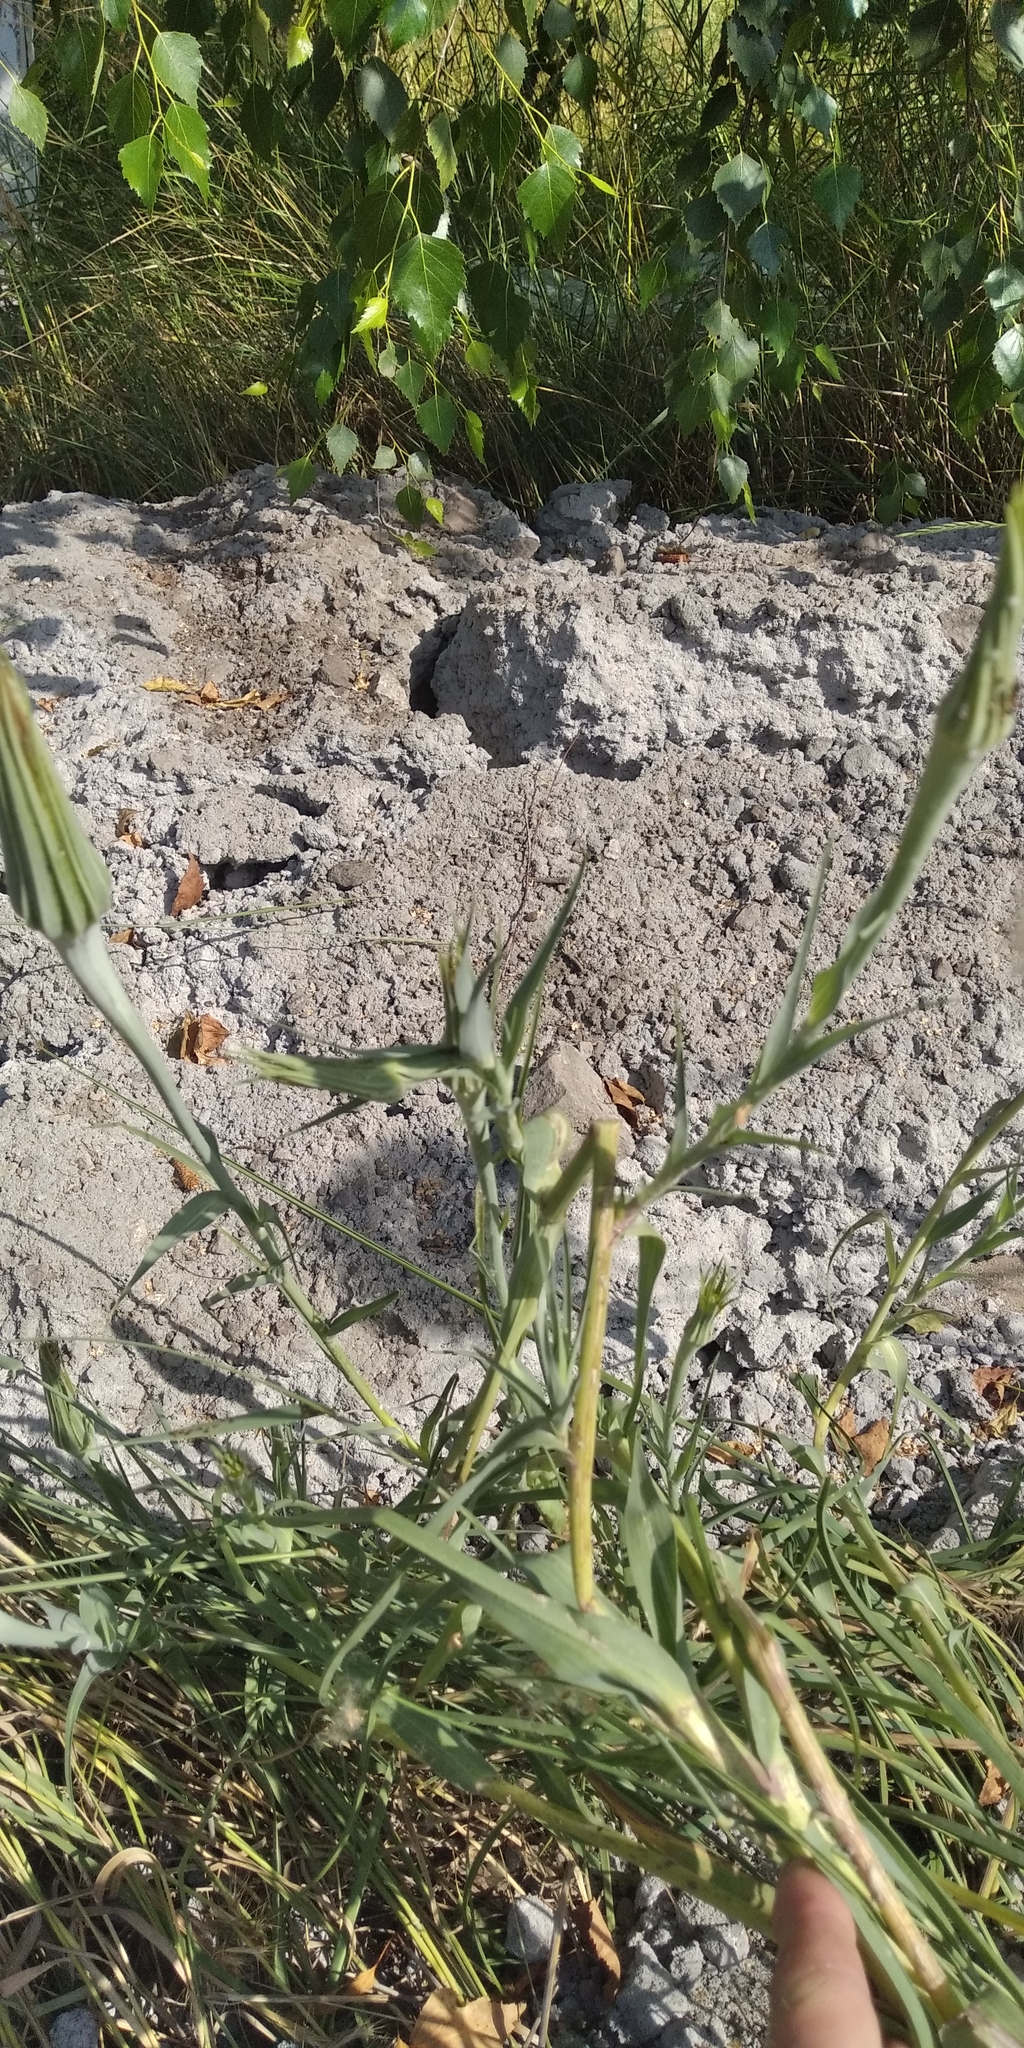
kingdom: Plantae
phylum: Tracheophyta
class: Magnoliopsida
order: Asterales
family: Asteraceae
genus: Tragopogon
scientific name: Tragopogon dubius
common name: Yellow salsify
